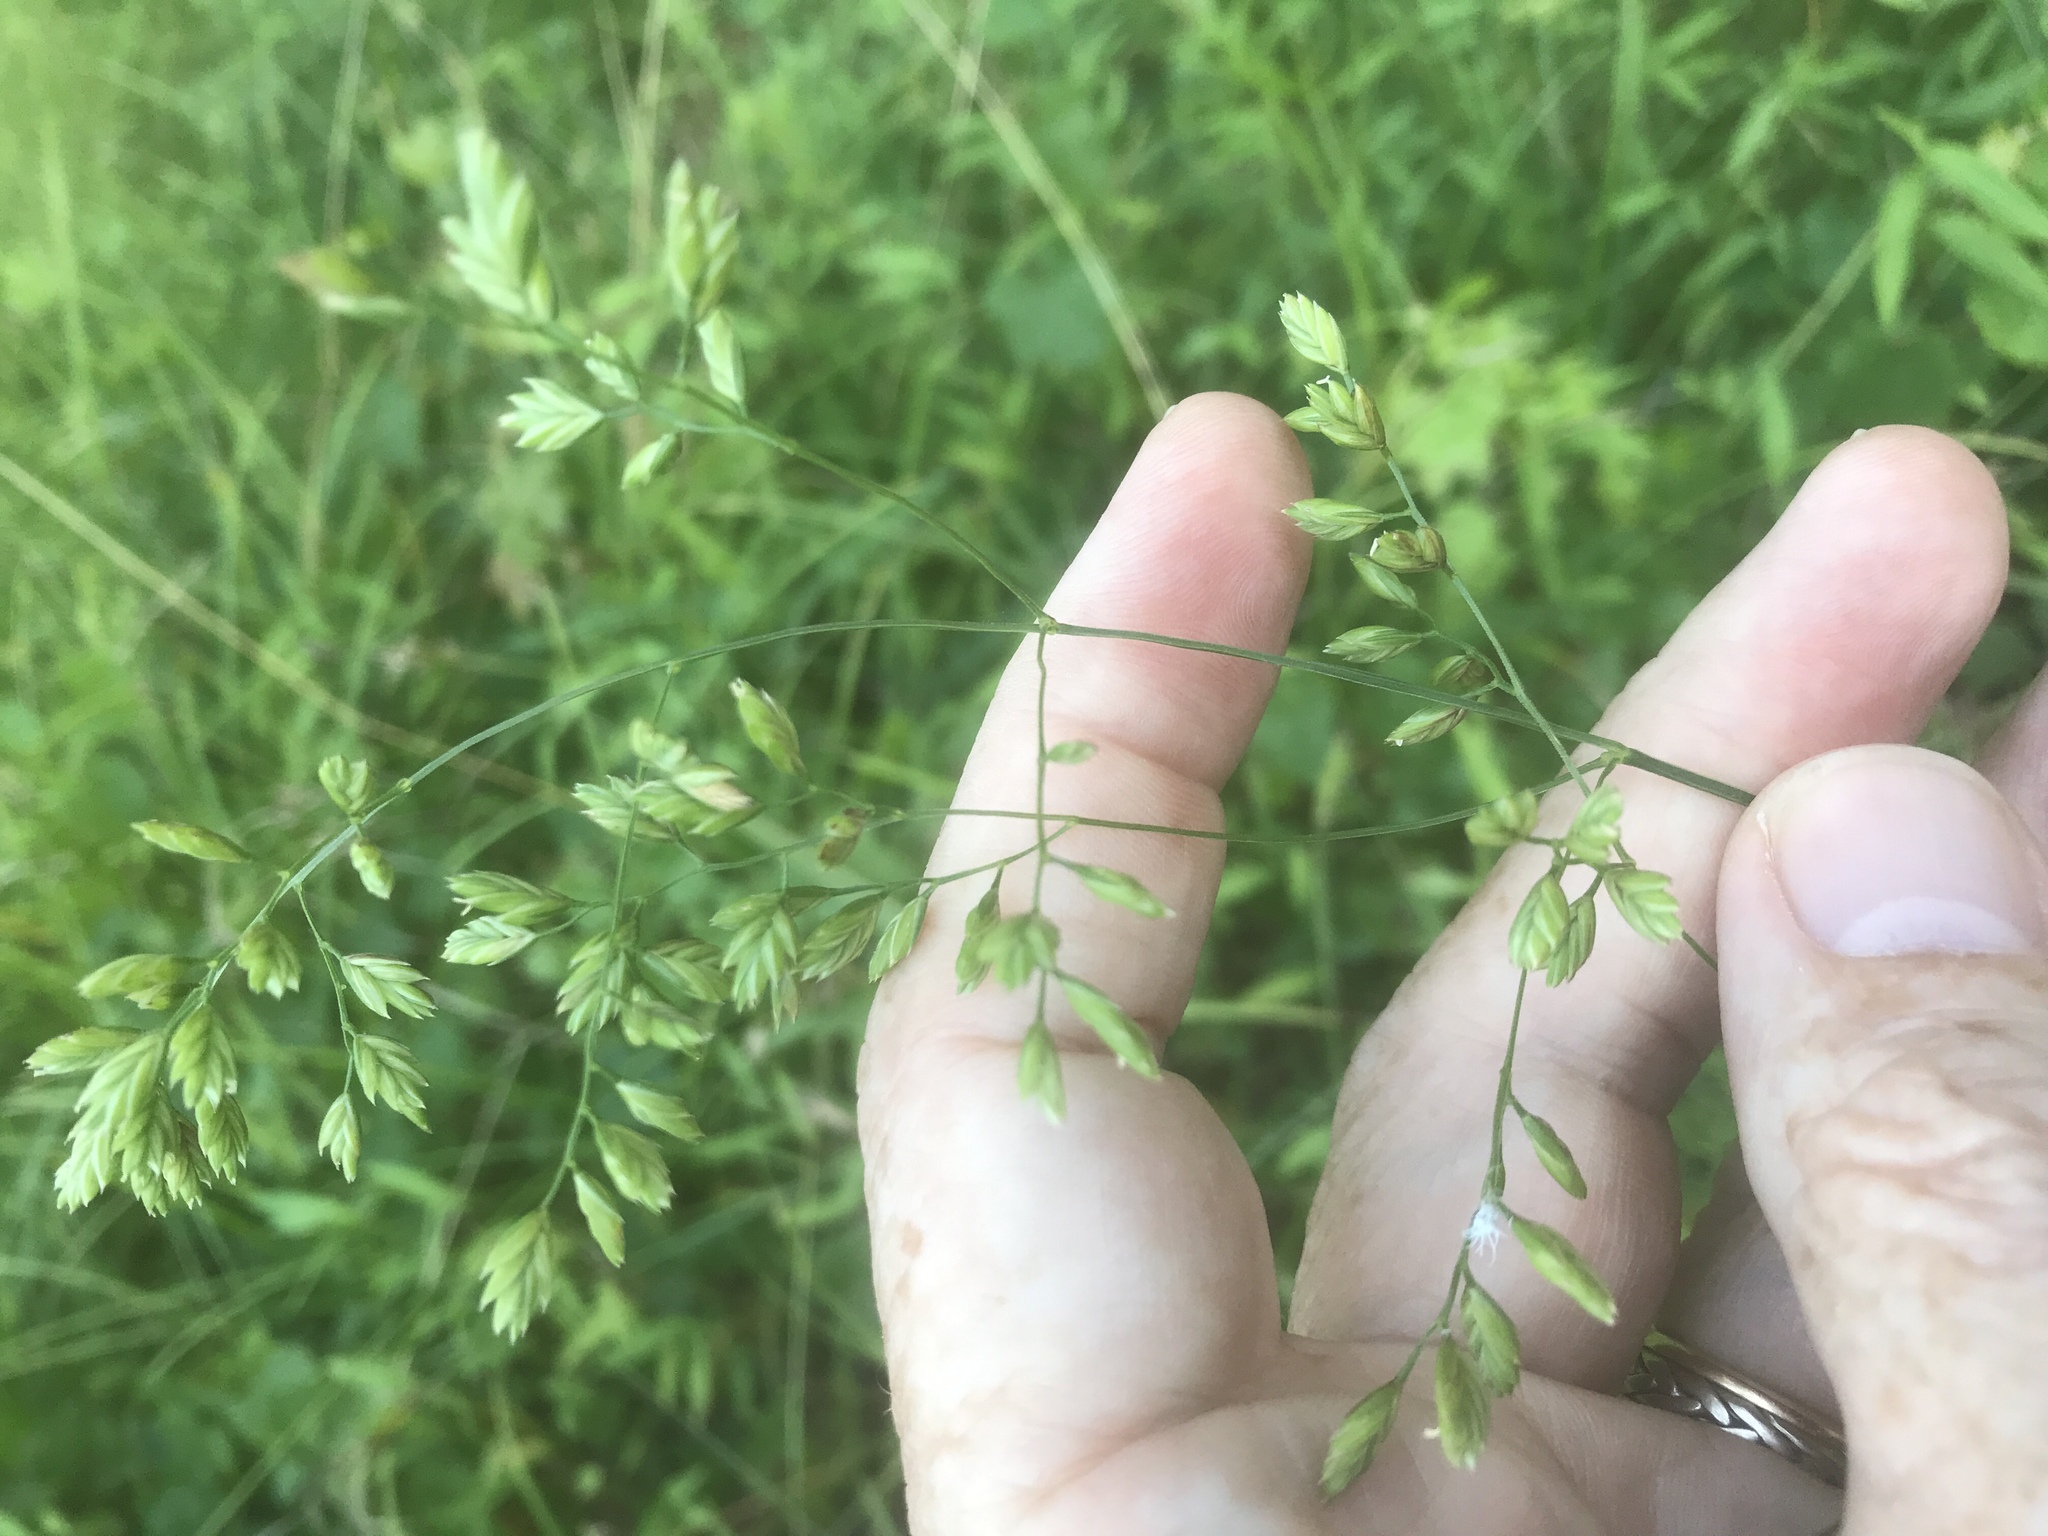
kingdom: Plantae
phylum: Tracheophyta
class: Liliopsida
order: Poales
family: Poaceae
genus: Festuca
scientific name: Festuca paradoxa
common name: Cluster fescue
